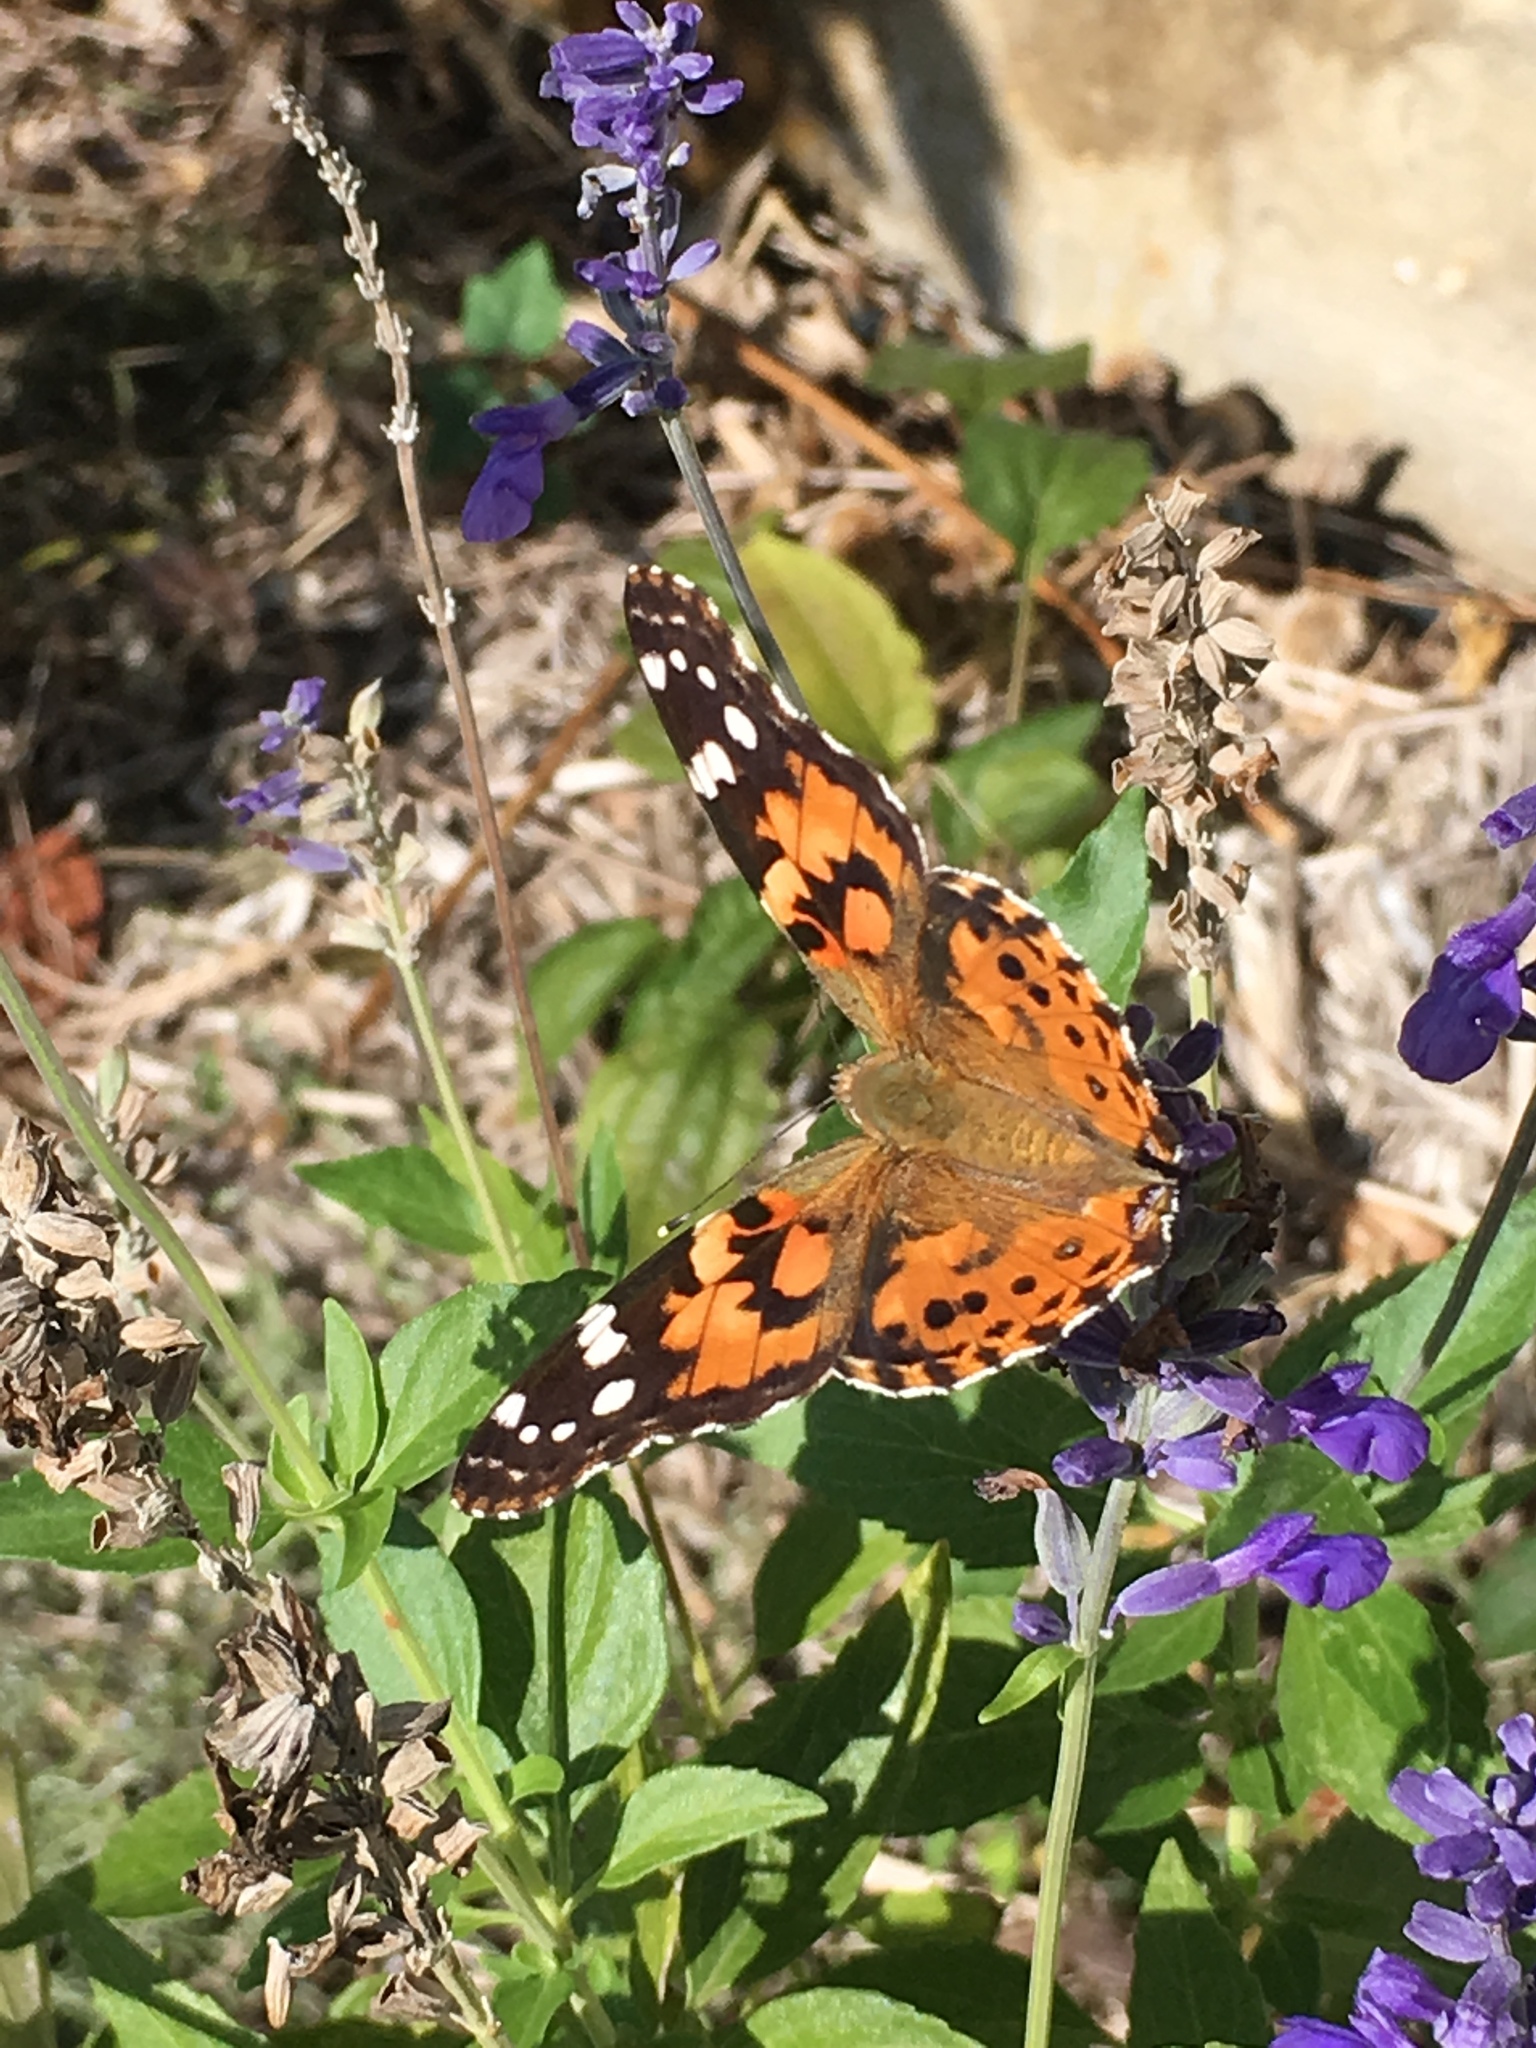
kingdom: Animalia
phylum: Arthropoda
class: Insecta
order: Lepidoptera
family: Nymphalidae
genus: Vanessa
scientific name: Vanessa cardui
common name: Painted lady
